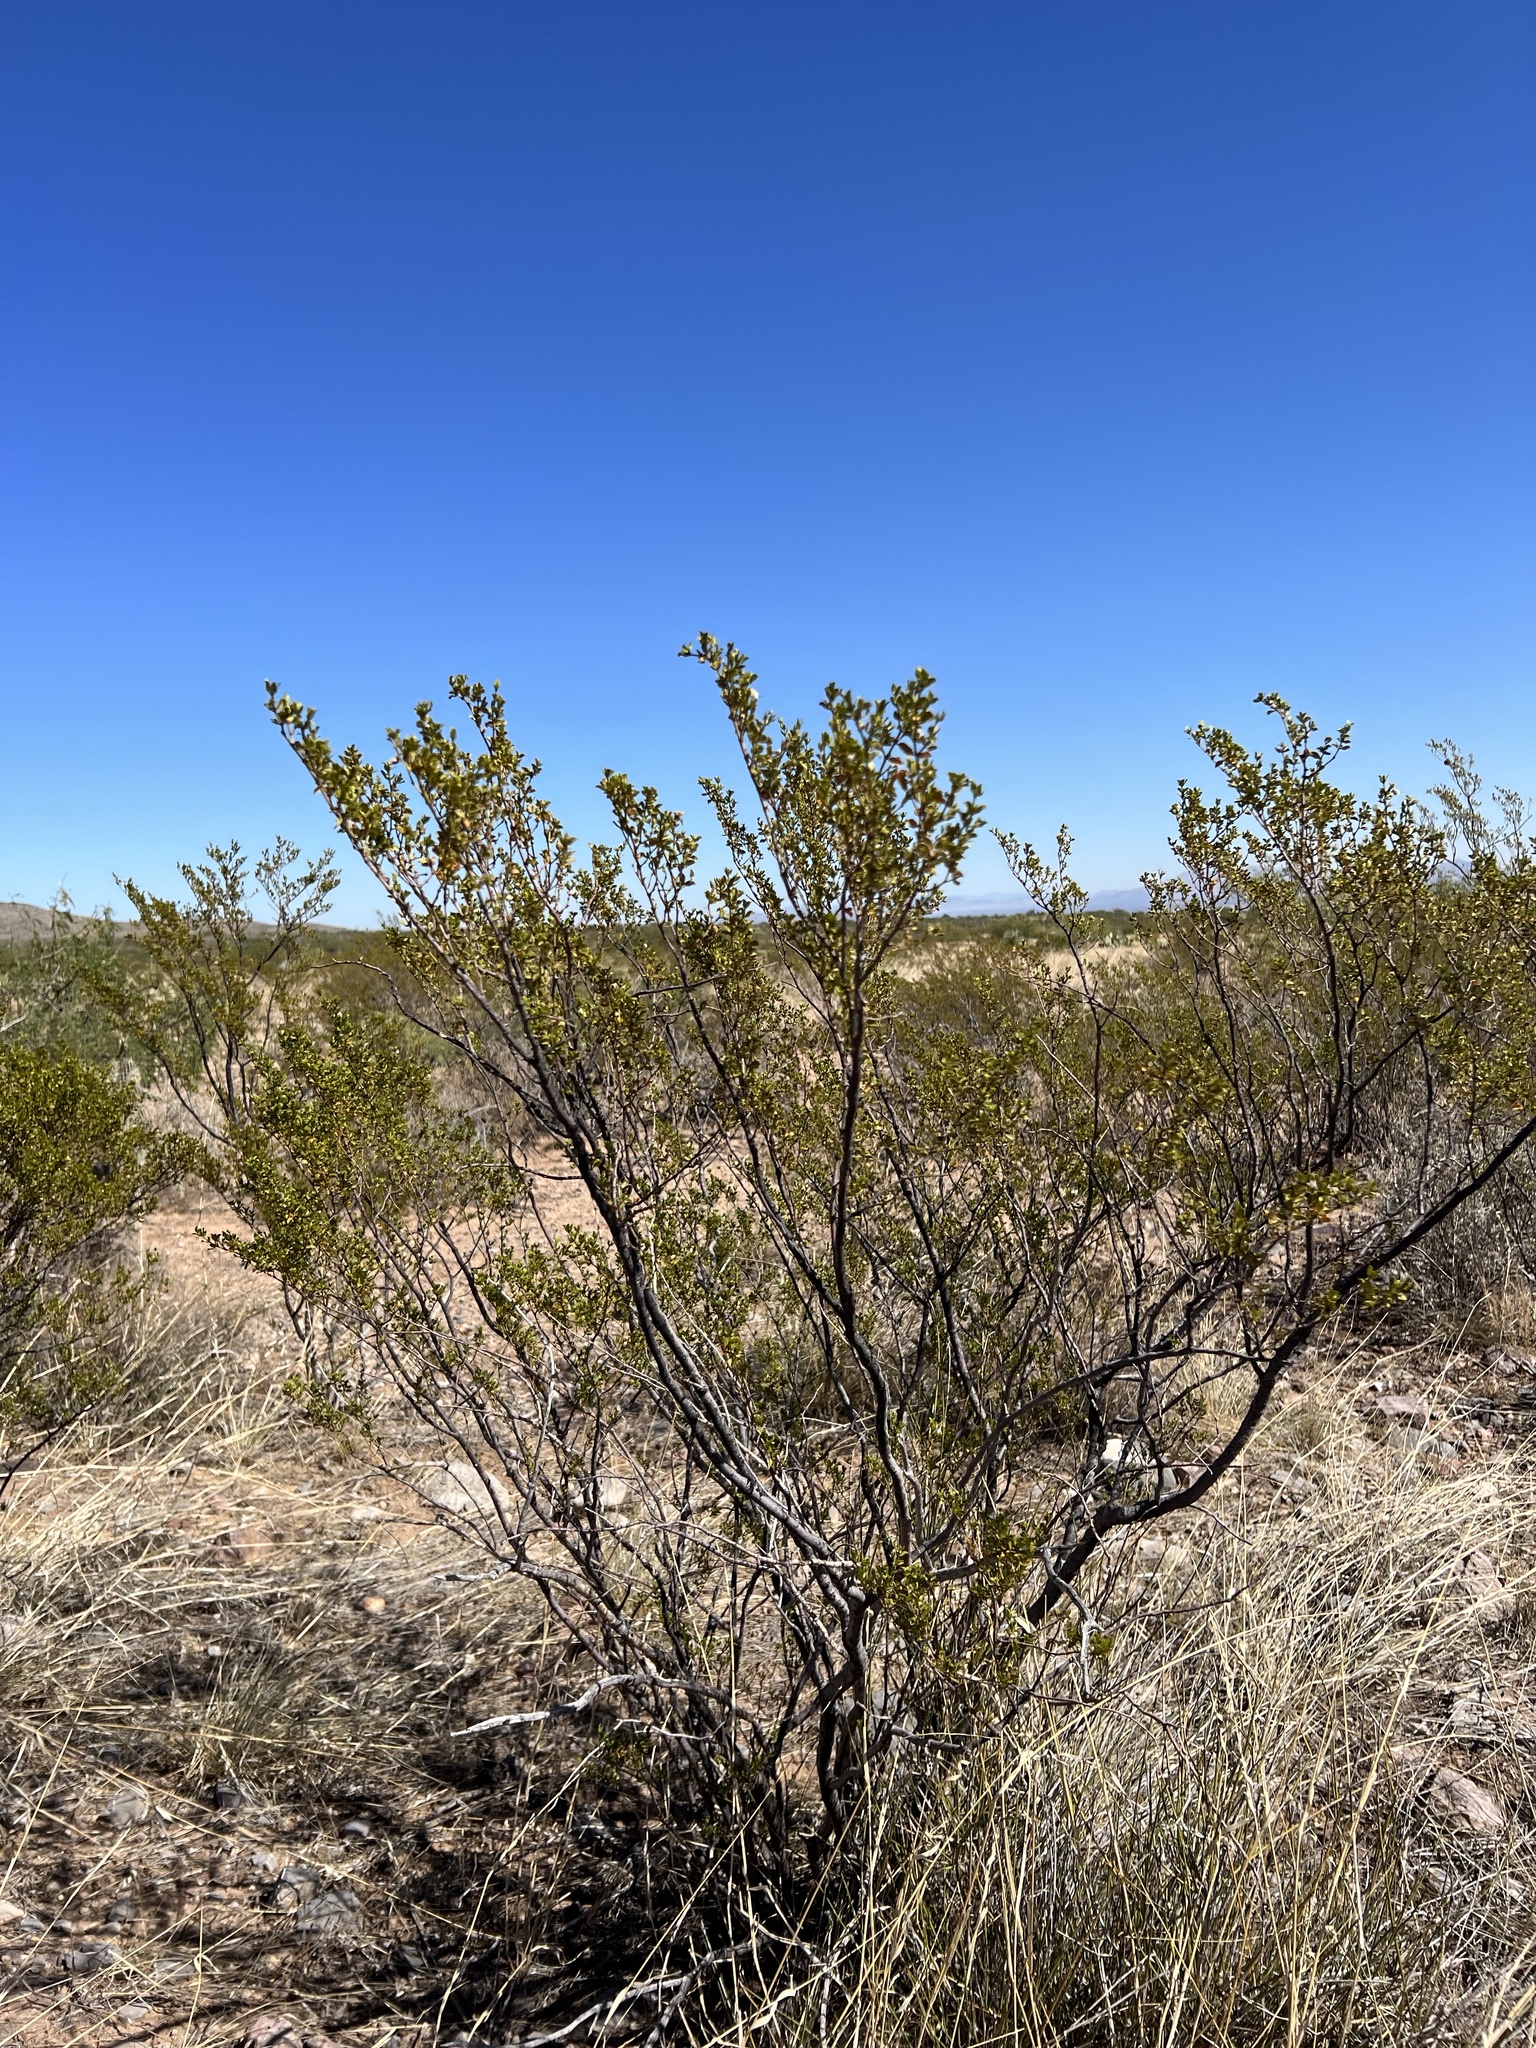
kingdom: Plantae
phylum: Tracheophyta
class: Magnoliopsida
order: Zygophyllales
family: Zygophyllaceae
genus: Larrea
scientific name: Larrea tridentata
